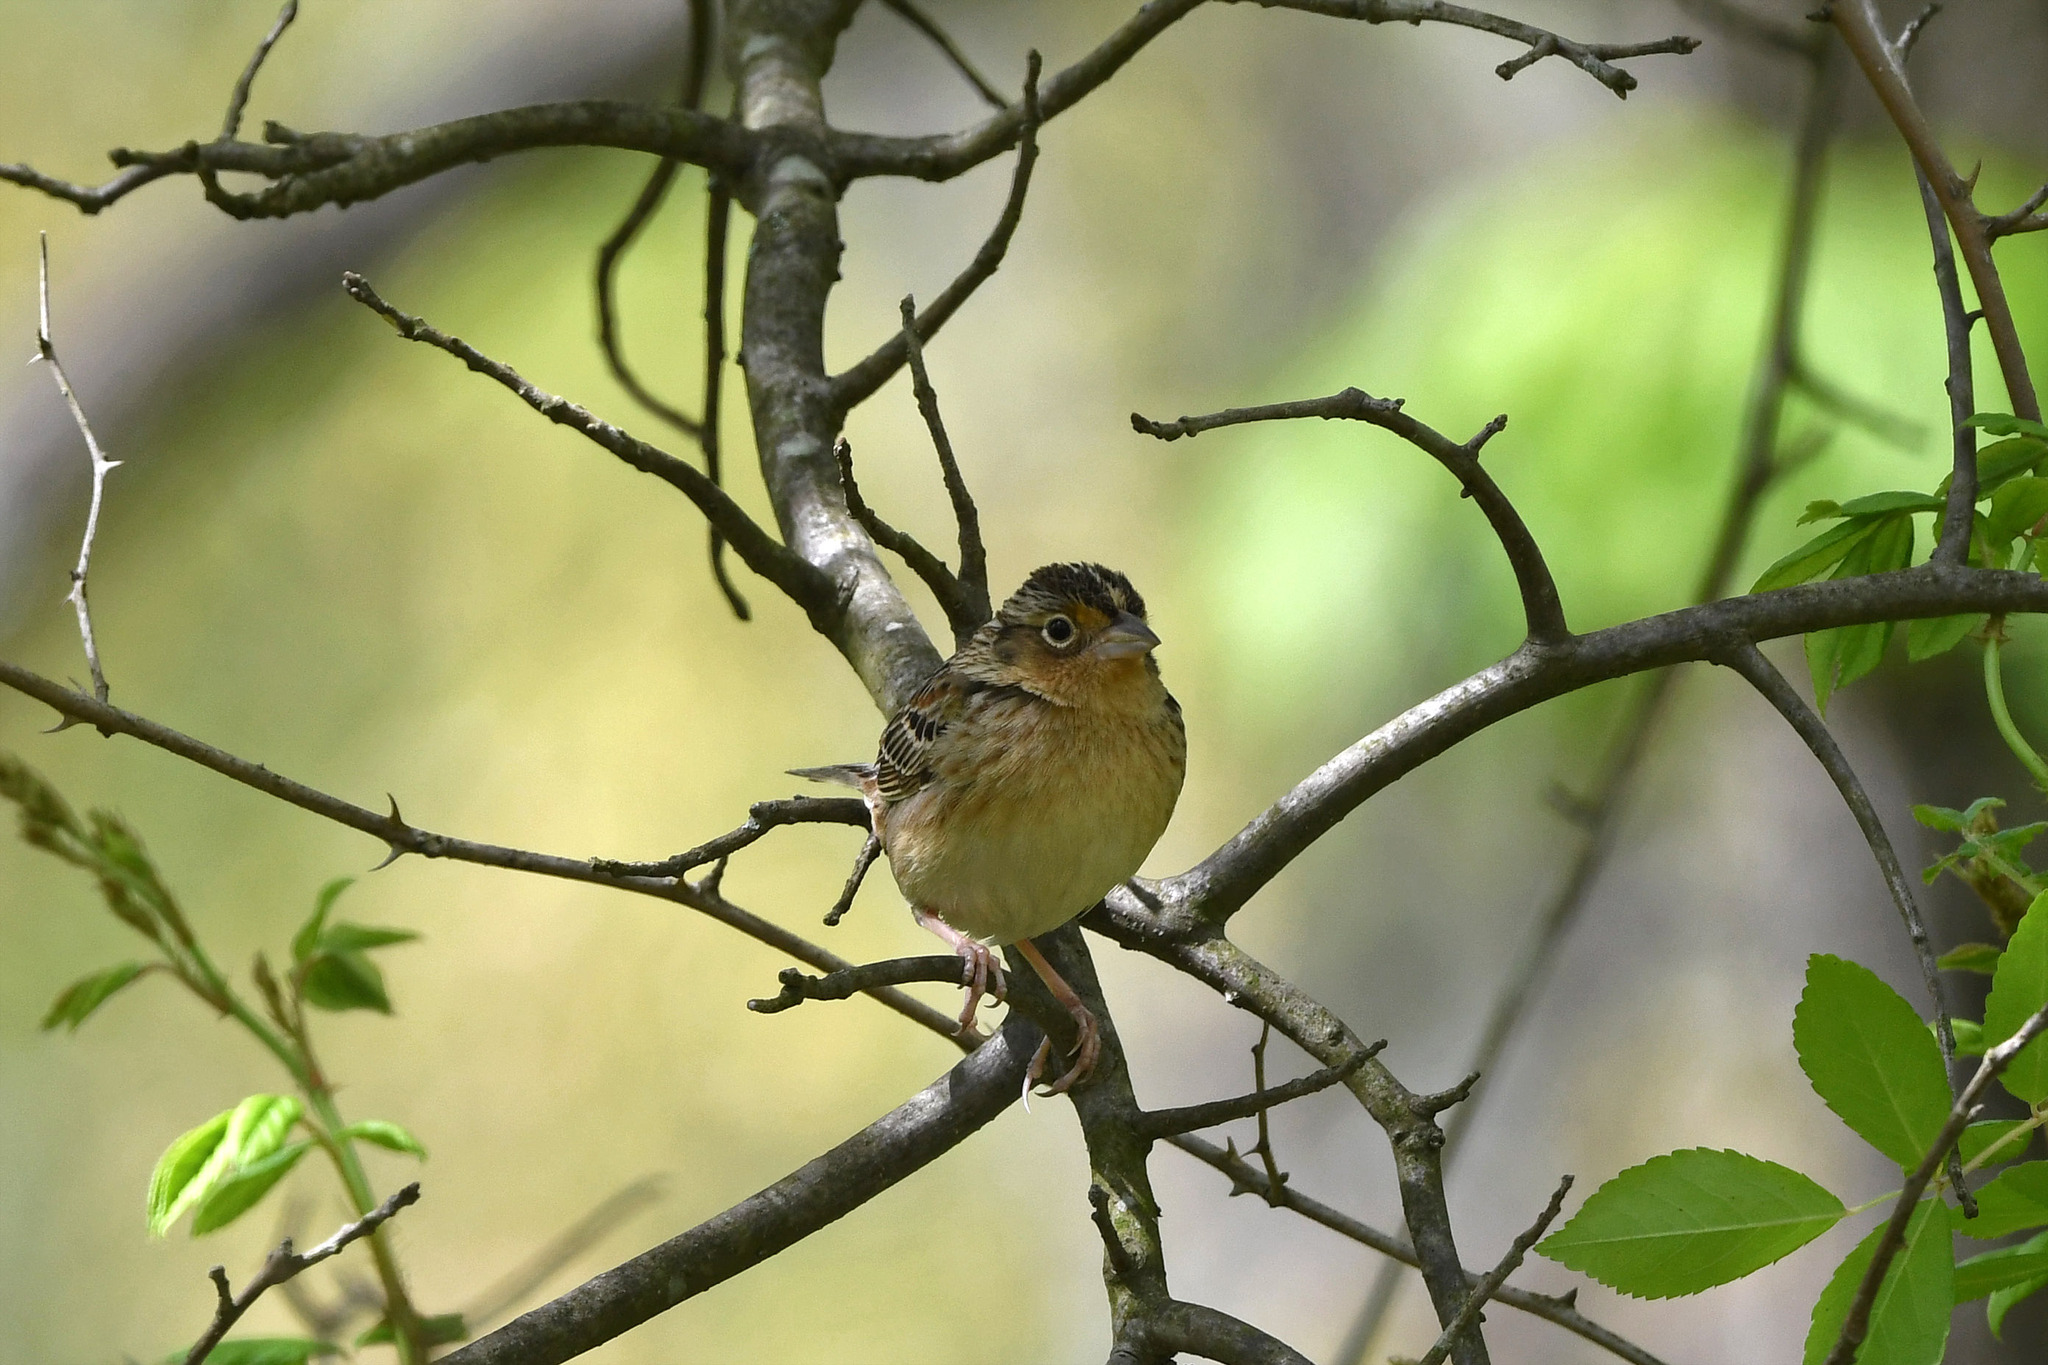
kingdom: Animalia
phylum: Chordata
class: Aves
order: Passeriformes
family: Passerellidae
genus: Ammodramus
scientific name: Ammodramus savannarum
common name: Grasshopper sparrow
